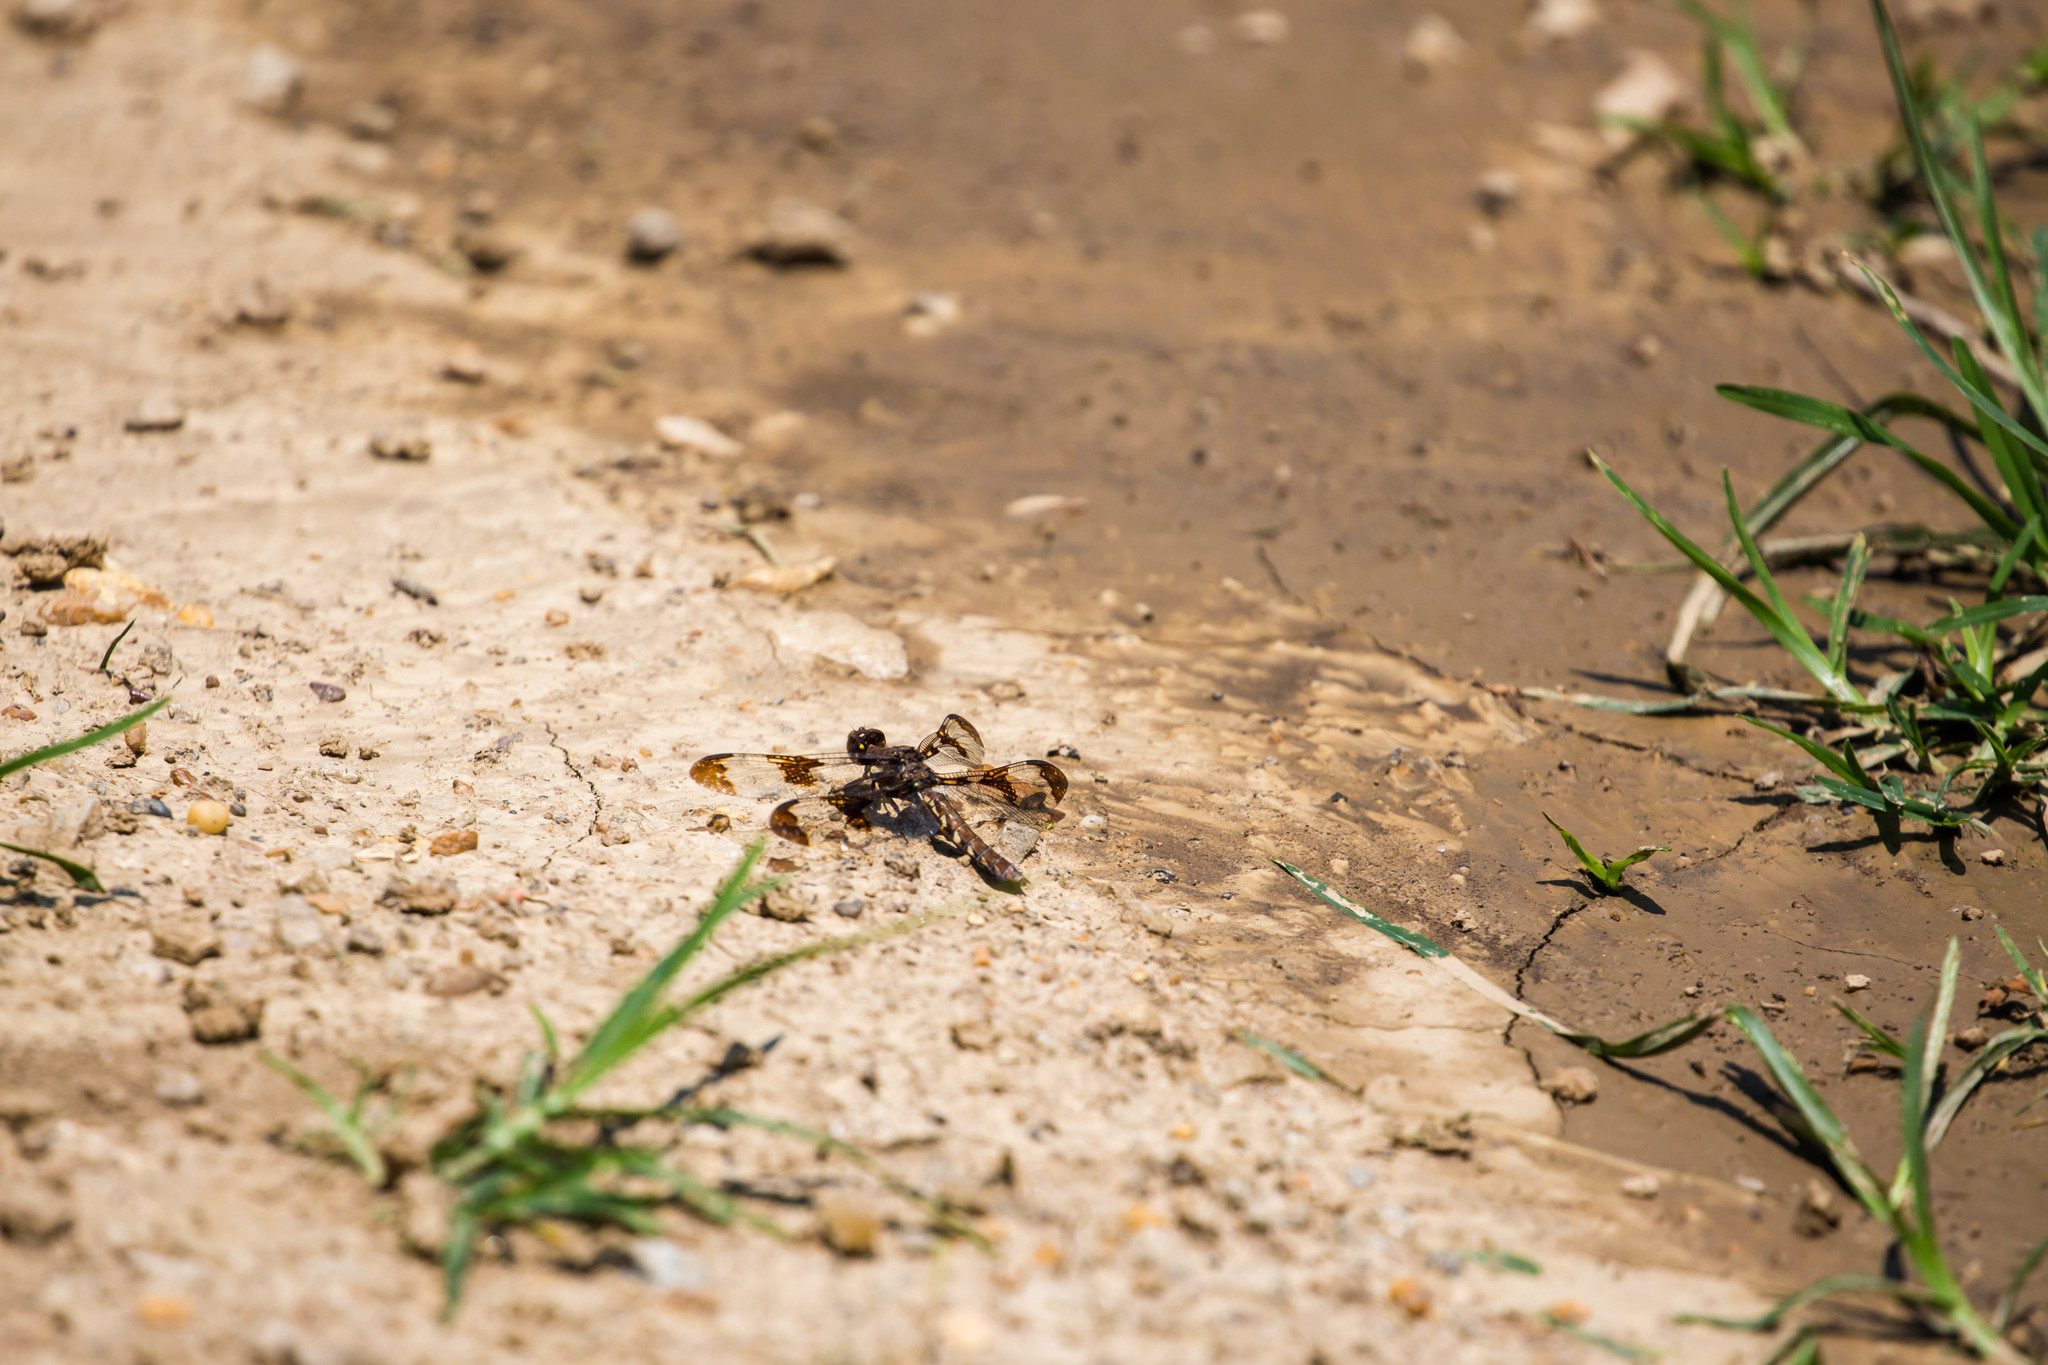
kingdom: Animalia
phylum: Arthropoda
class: Insecta
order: Odonata
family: Libellulidae
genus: Plathemis
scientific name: Plathemis lydia
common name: Common whitetail
